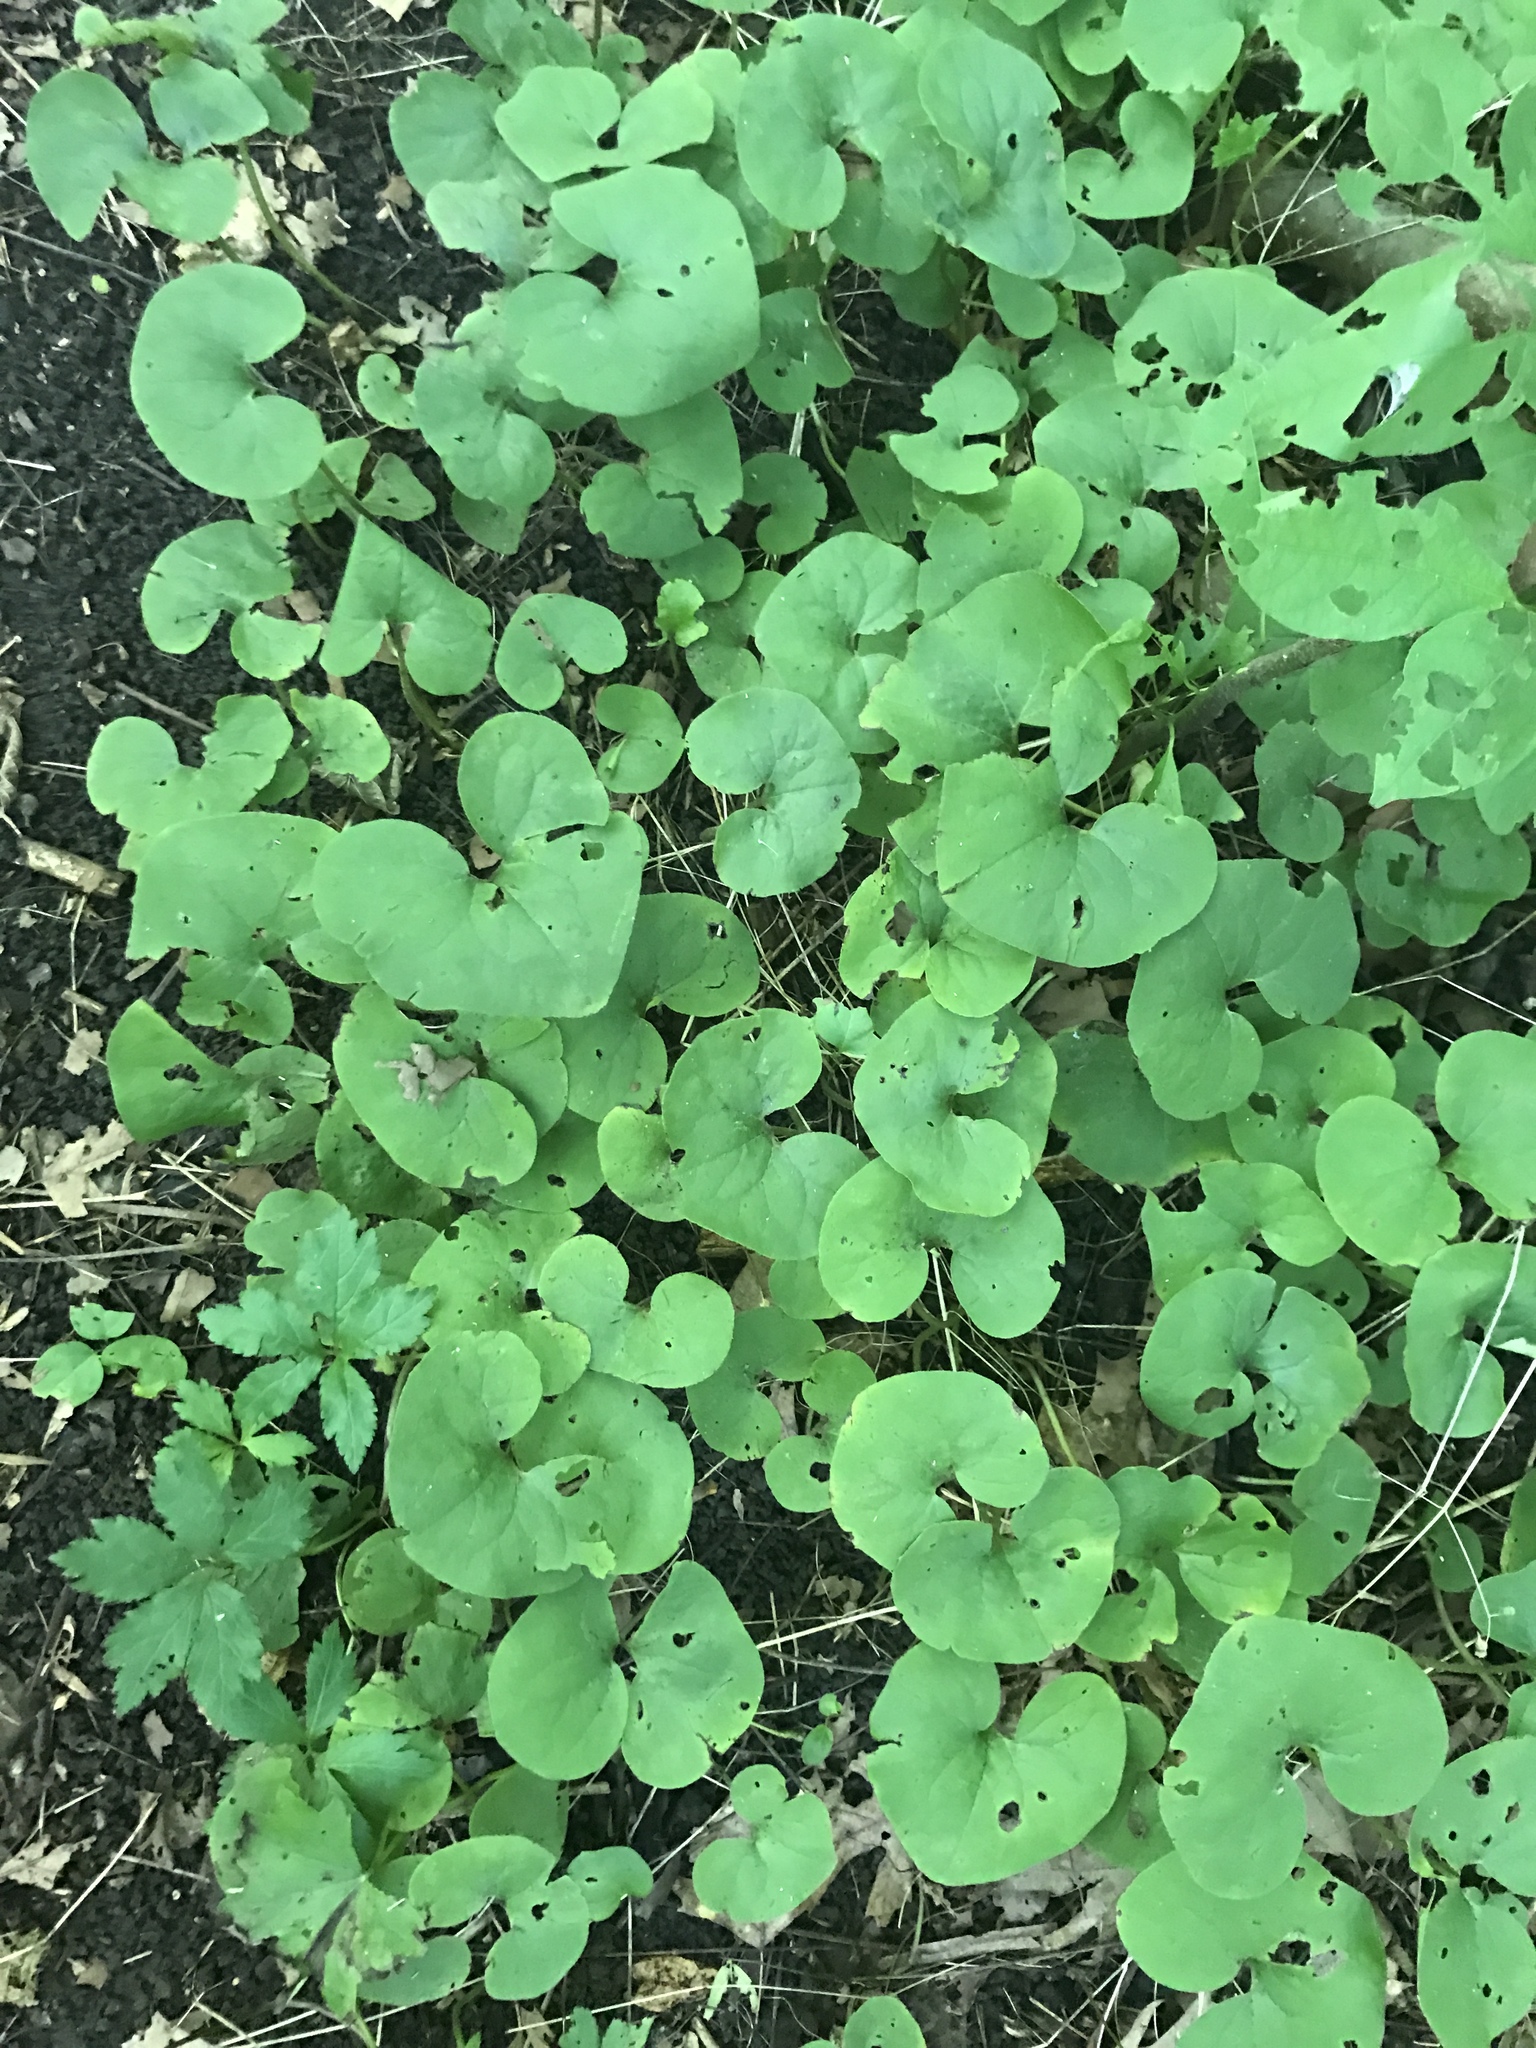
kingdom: Plantae
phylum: Tracheophyta
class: Magnoliopsida
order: Piperales
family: Aristolochiaceae
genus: Asarum
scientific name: Asarum canadense
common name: Wild ginger
